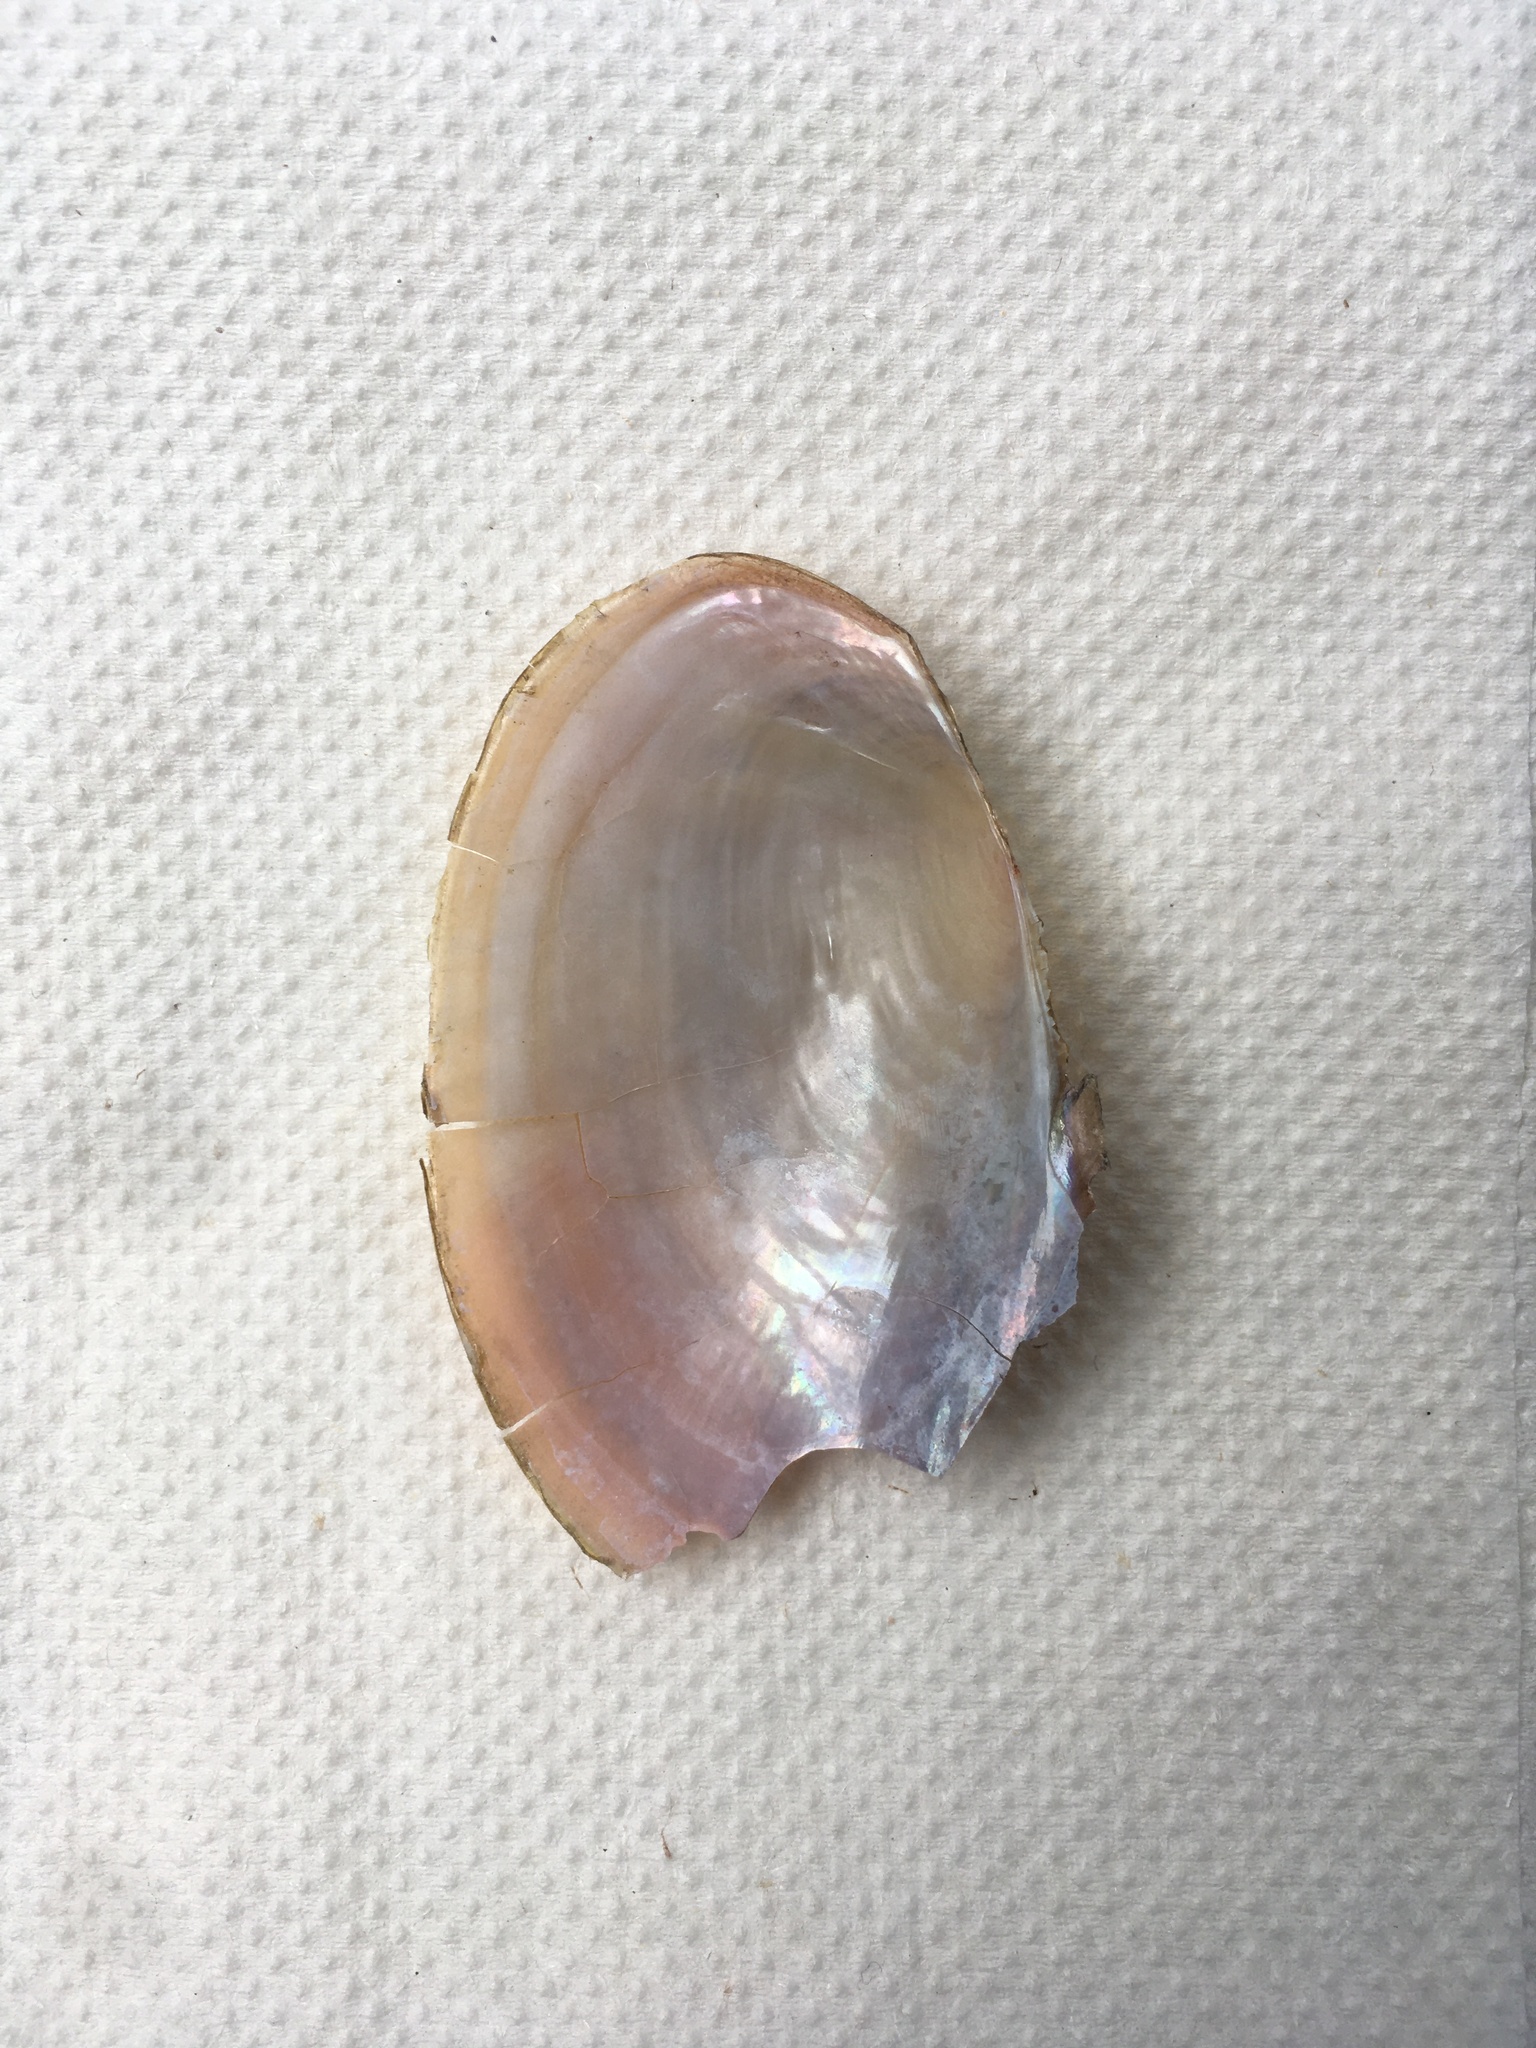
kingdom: Animalia
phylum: Mollusca
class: Bivalvia
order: Unionida
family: Unionidae
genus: Anodonta
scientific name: Anodonta anatina
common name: Duck mussel
